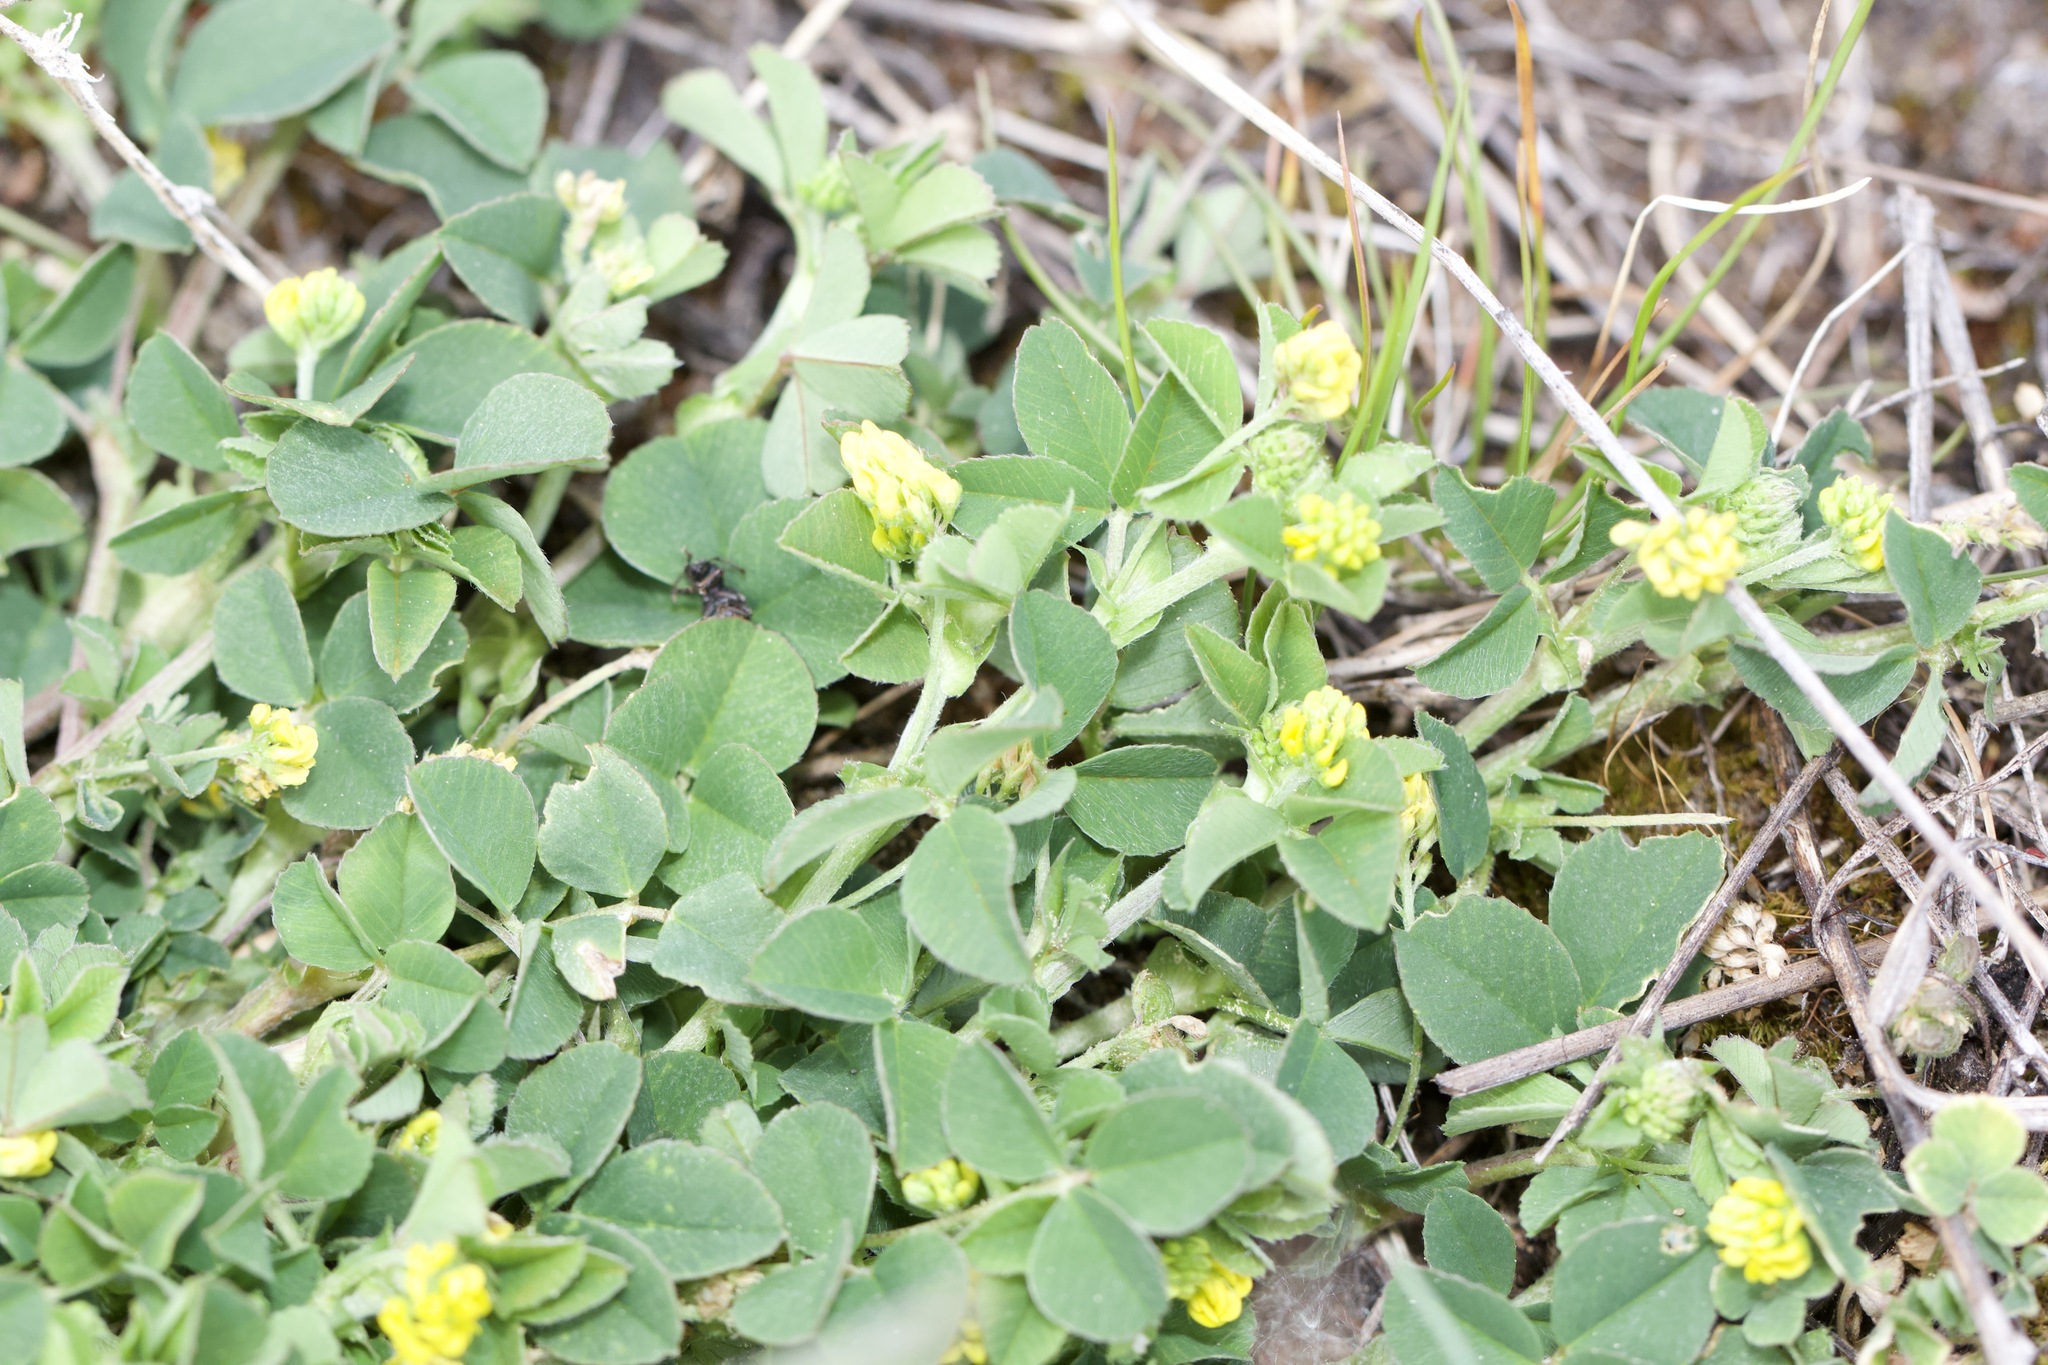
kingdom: Plantae
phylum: Tracheophyta
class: Magnoliopsida
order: Fabales
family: Fabaceae
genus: Medicago
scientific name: Medicago lupulina
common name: Black medick
